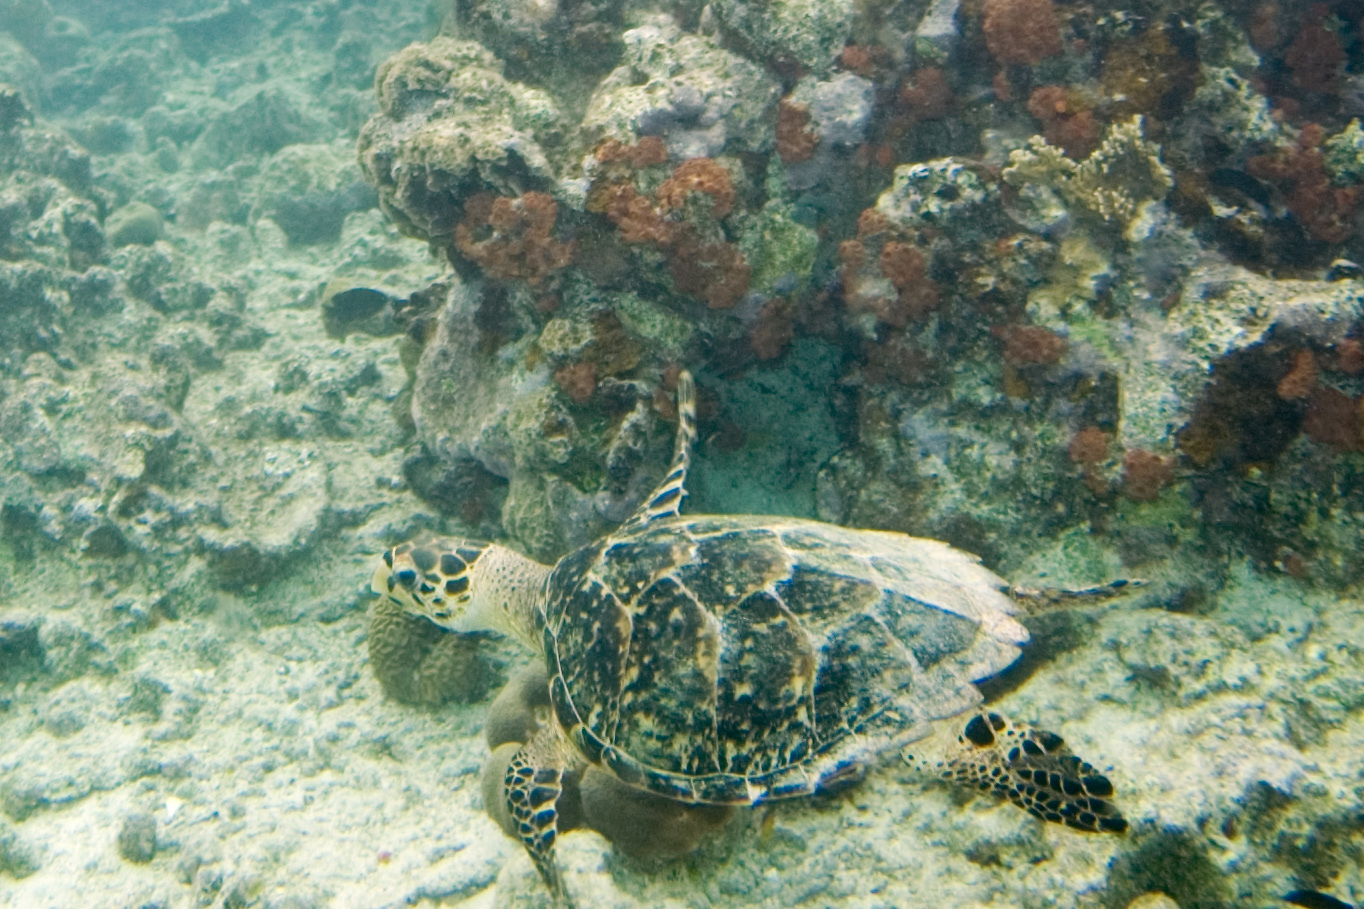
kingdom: Animalia
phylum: Chordata
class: Testudines
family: Cheloniidae
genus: Eretmochelys
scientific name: Eretmochelys imbricata
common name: Hawksbill turtle
